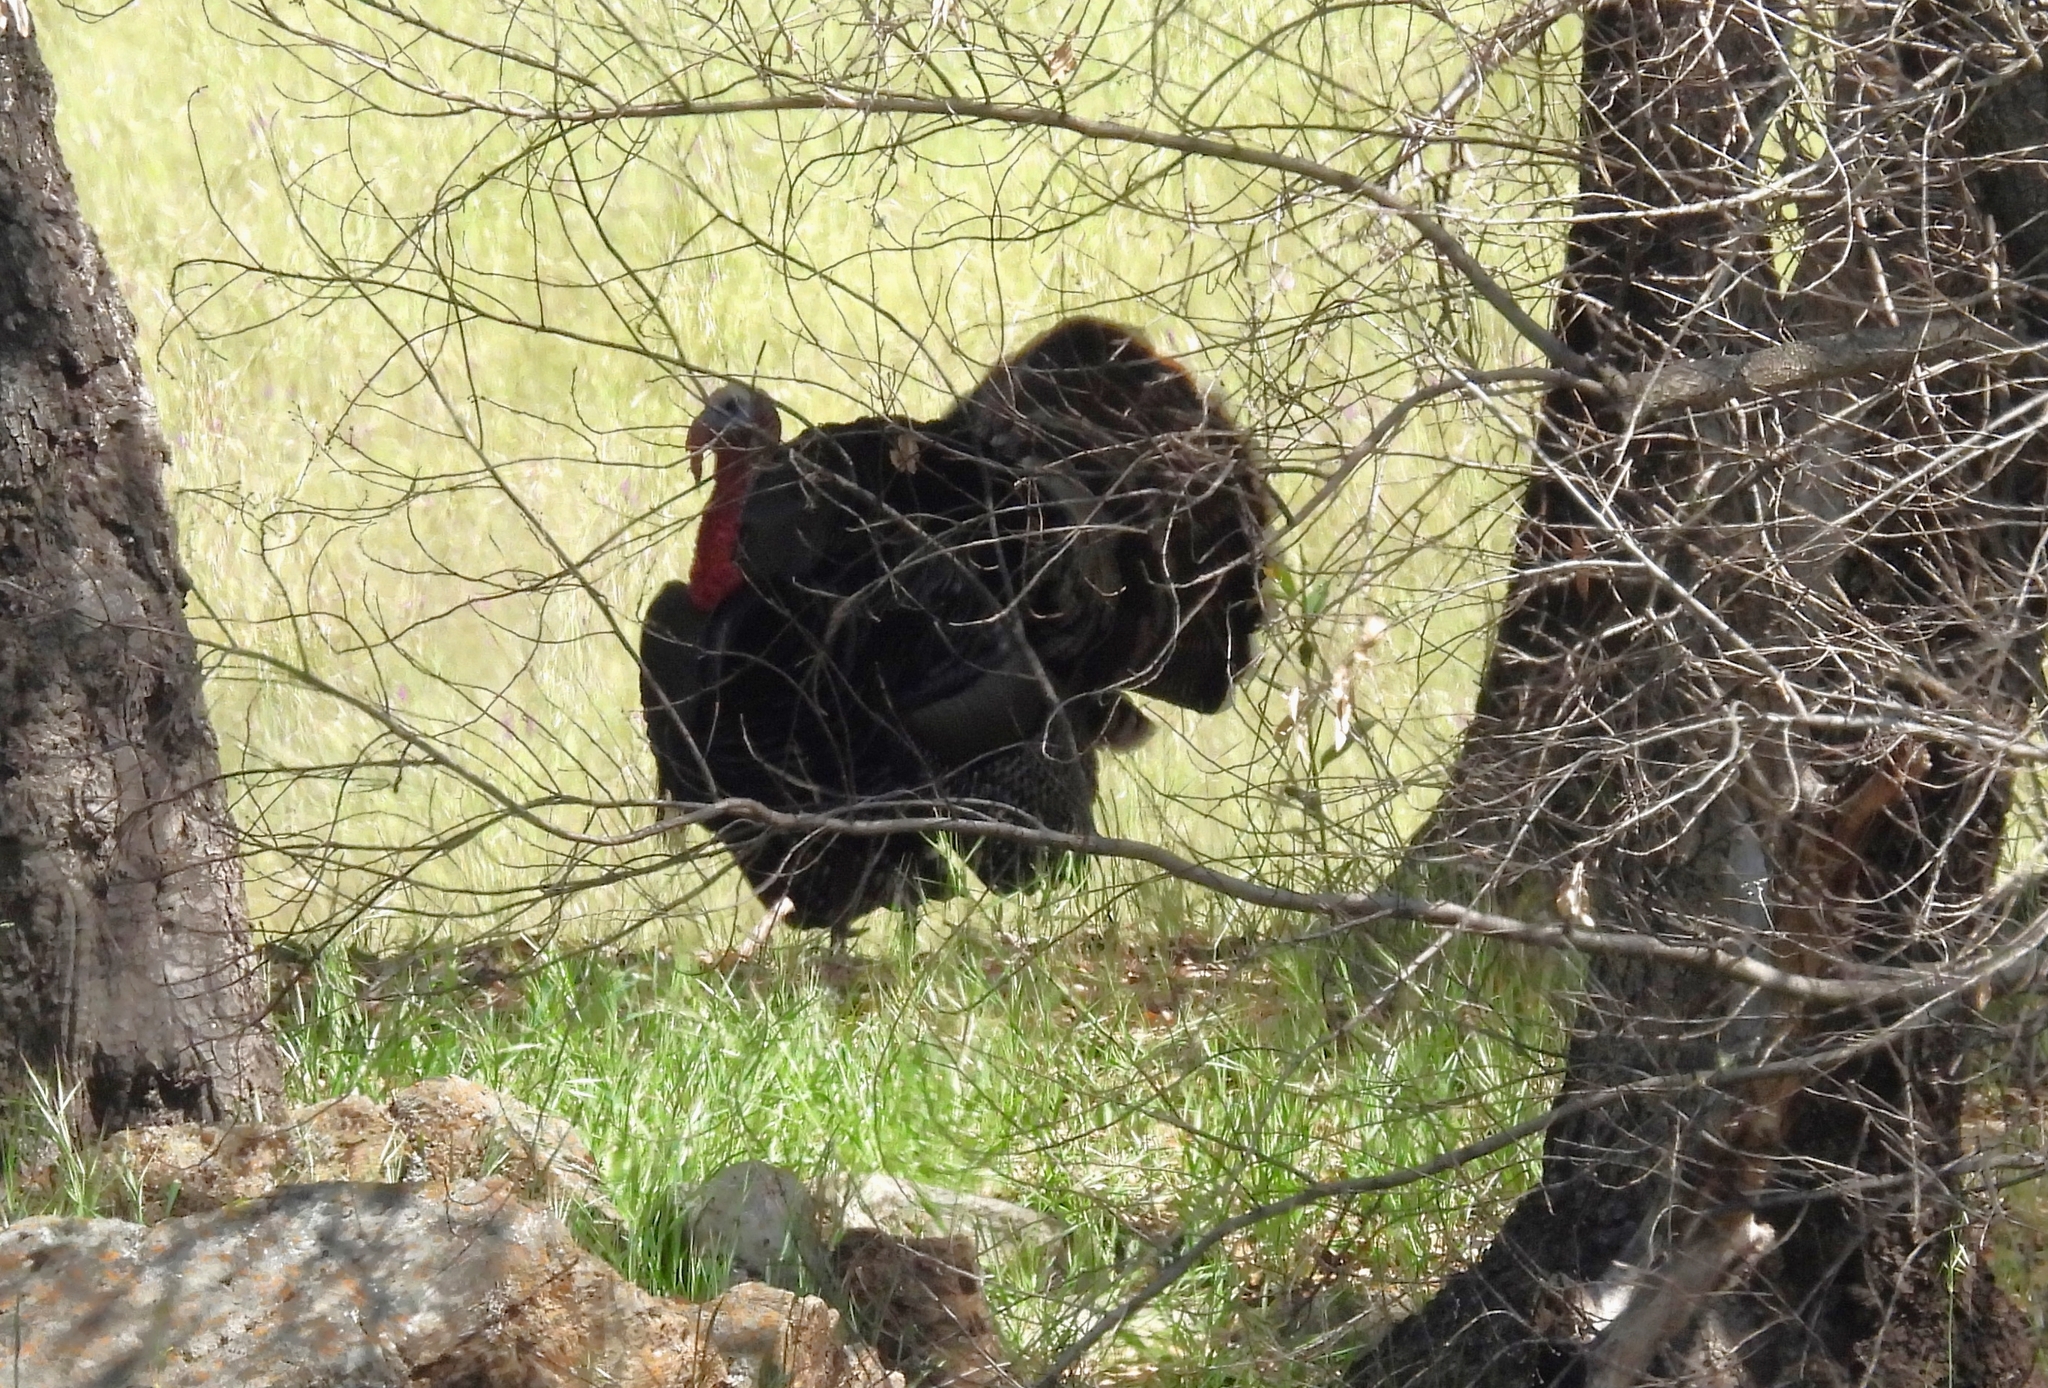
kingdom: Animalia
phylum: Chordata
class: Aves
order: Galliformes
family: Phasianidae
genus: Meleagris
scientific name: Meleagris gallopavo
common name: Wild turkey
